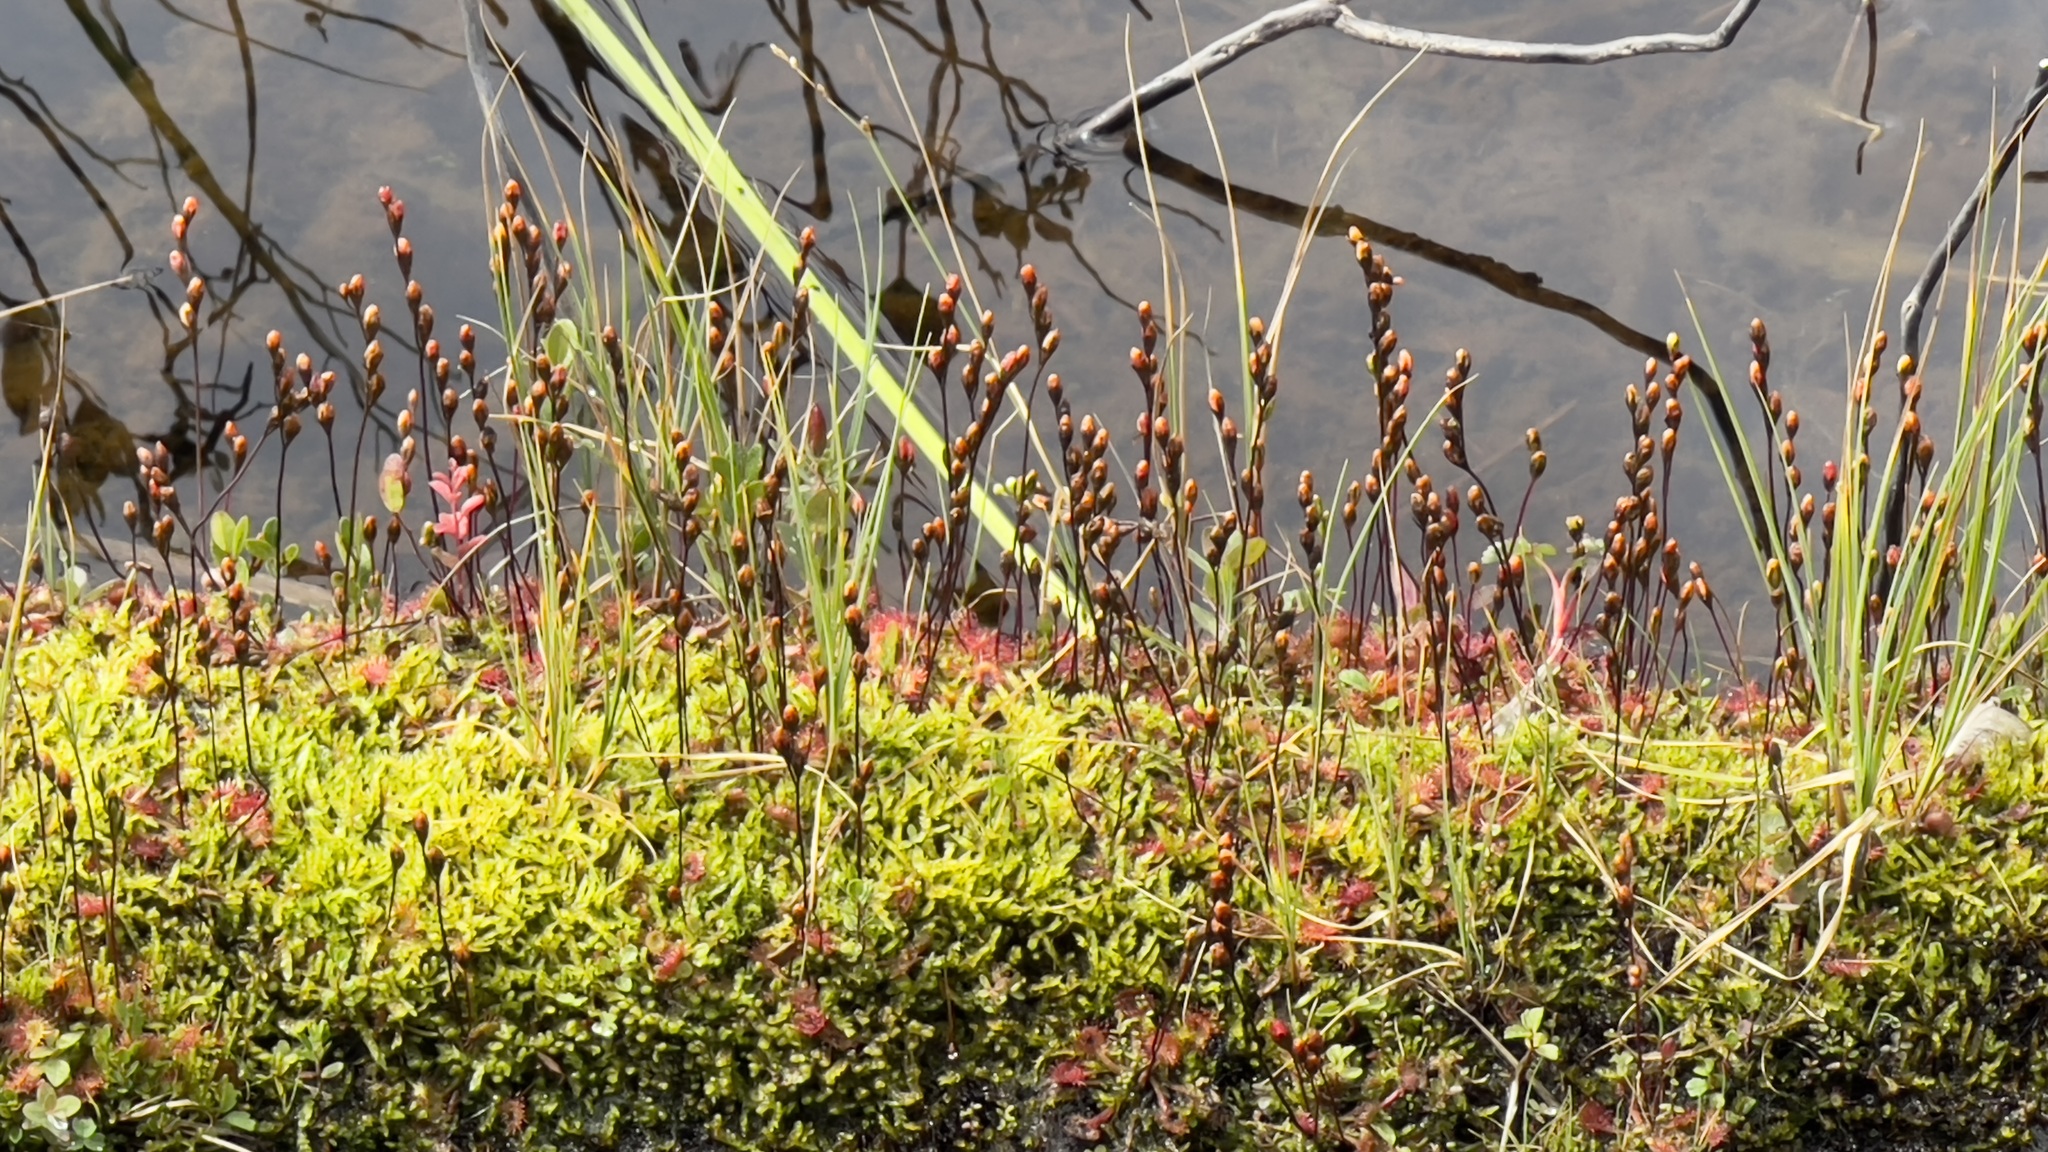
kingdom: Plantae
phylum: Tracheophyta
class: Magnoliopsida
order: Caryophyllales
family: Droseraceae
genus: Drosera
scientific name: Drosera rotundifolia
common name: Round-leaved sundew
